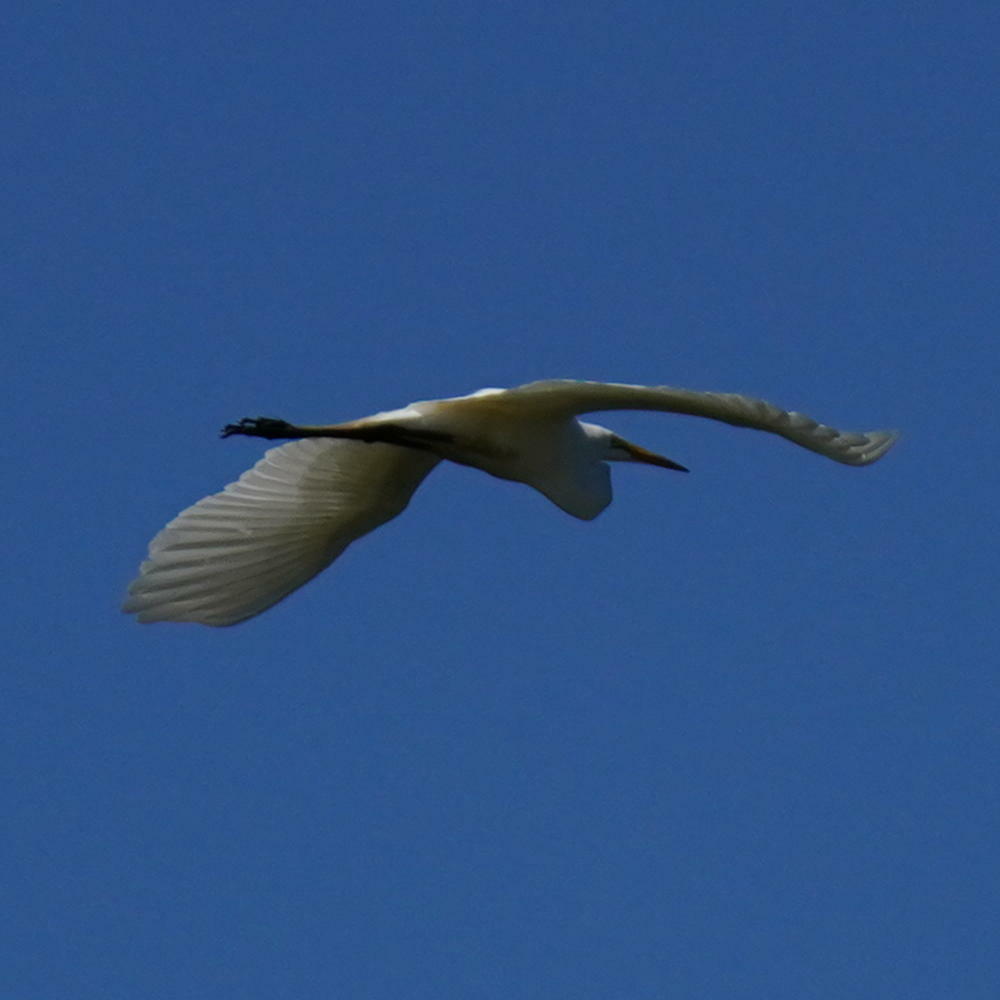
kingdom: Animalia
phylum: Chordata
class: Aves
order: Pelecaniformes
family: Ardeidae
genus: Ardea
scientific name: Ardea alba
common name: Great egret
